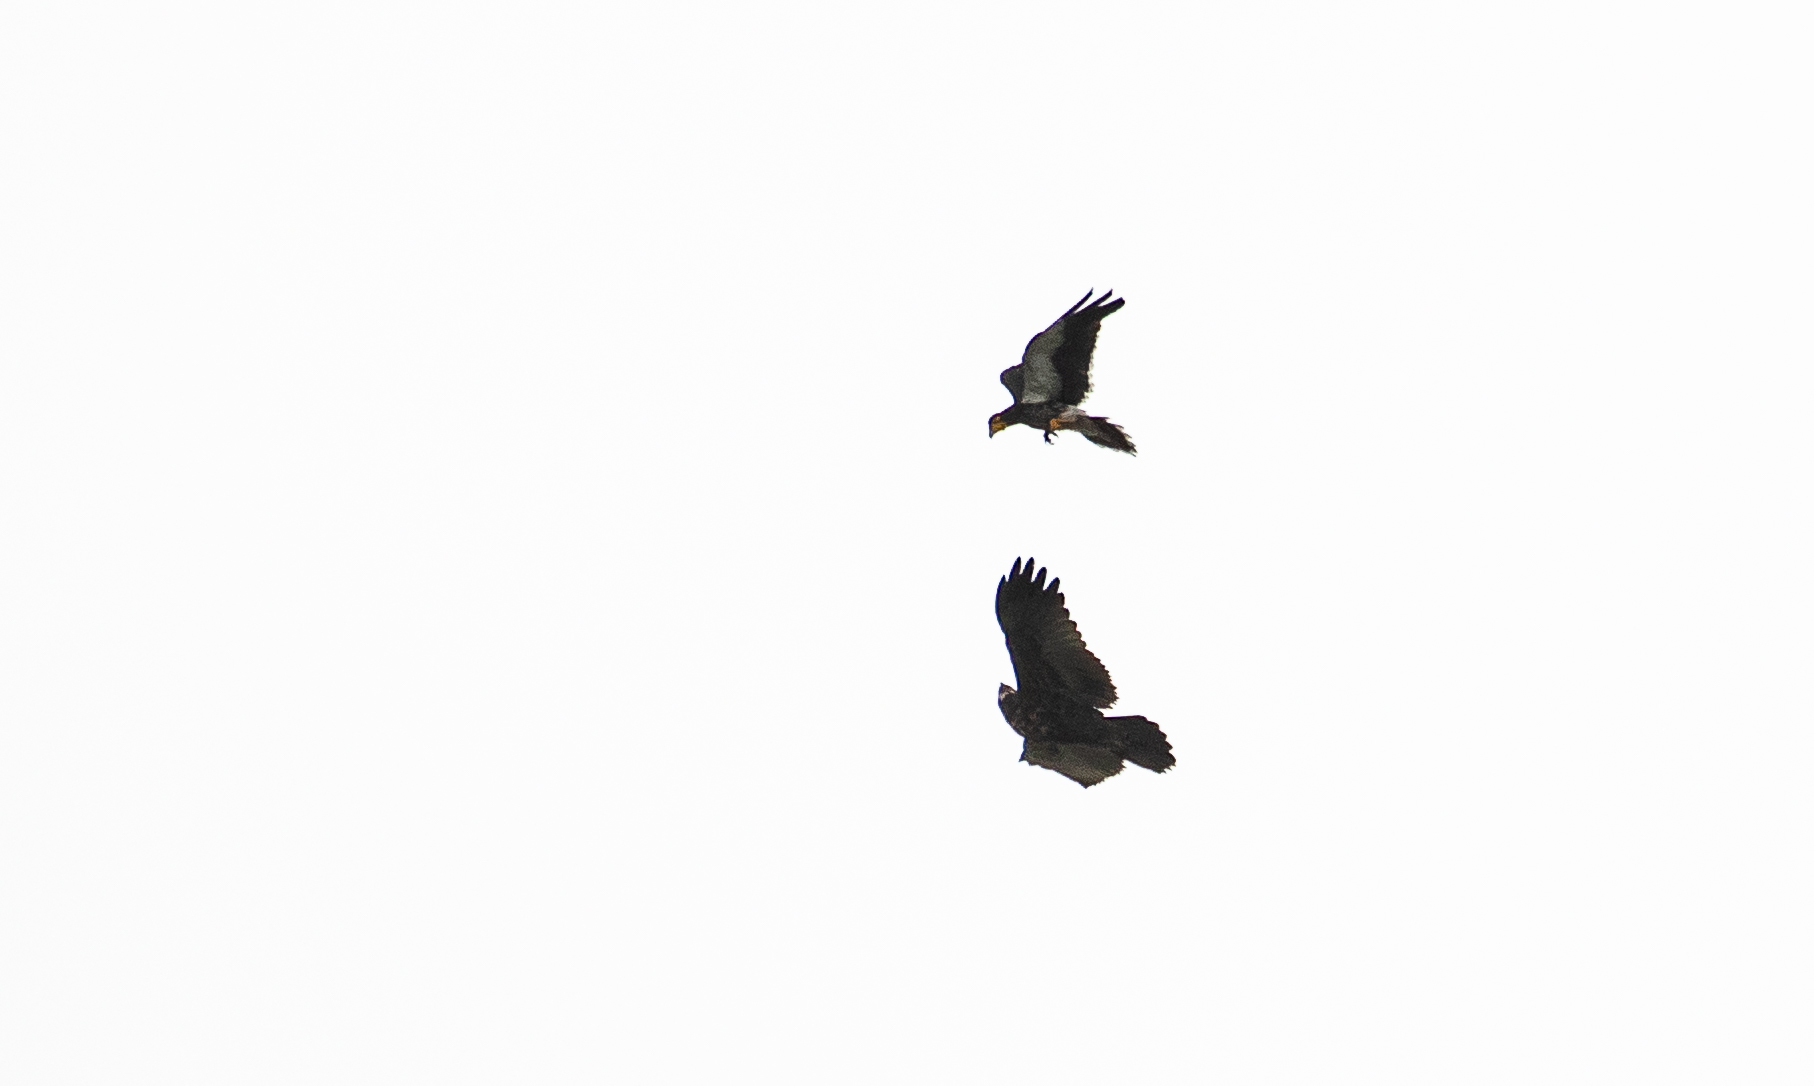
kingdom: Animalia
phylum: Chordata
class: Aves
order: Falconiformes
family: Falconidae
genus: Daptrius
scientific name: Daptrius
